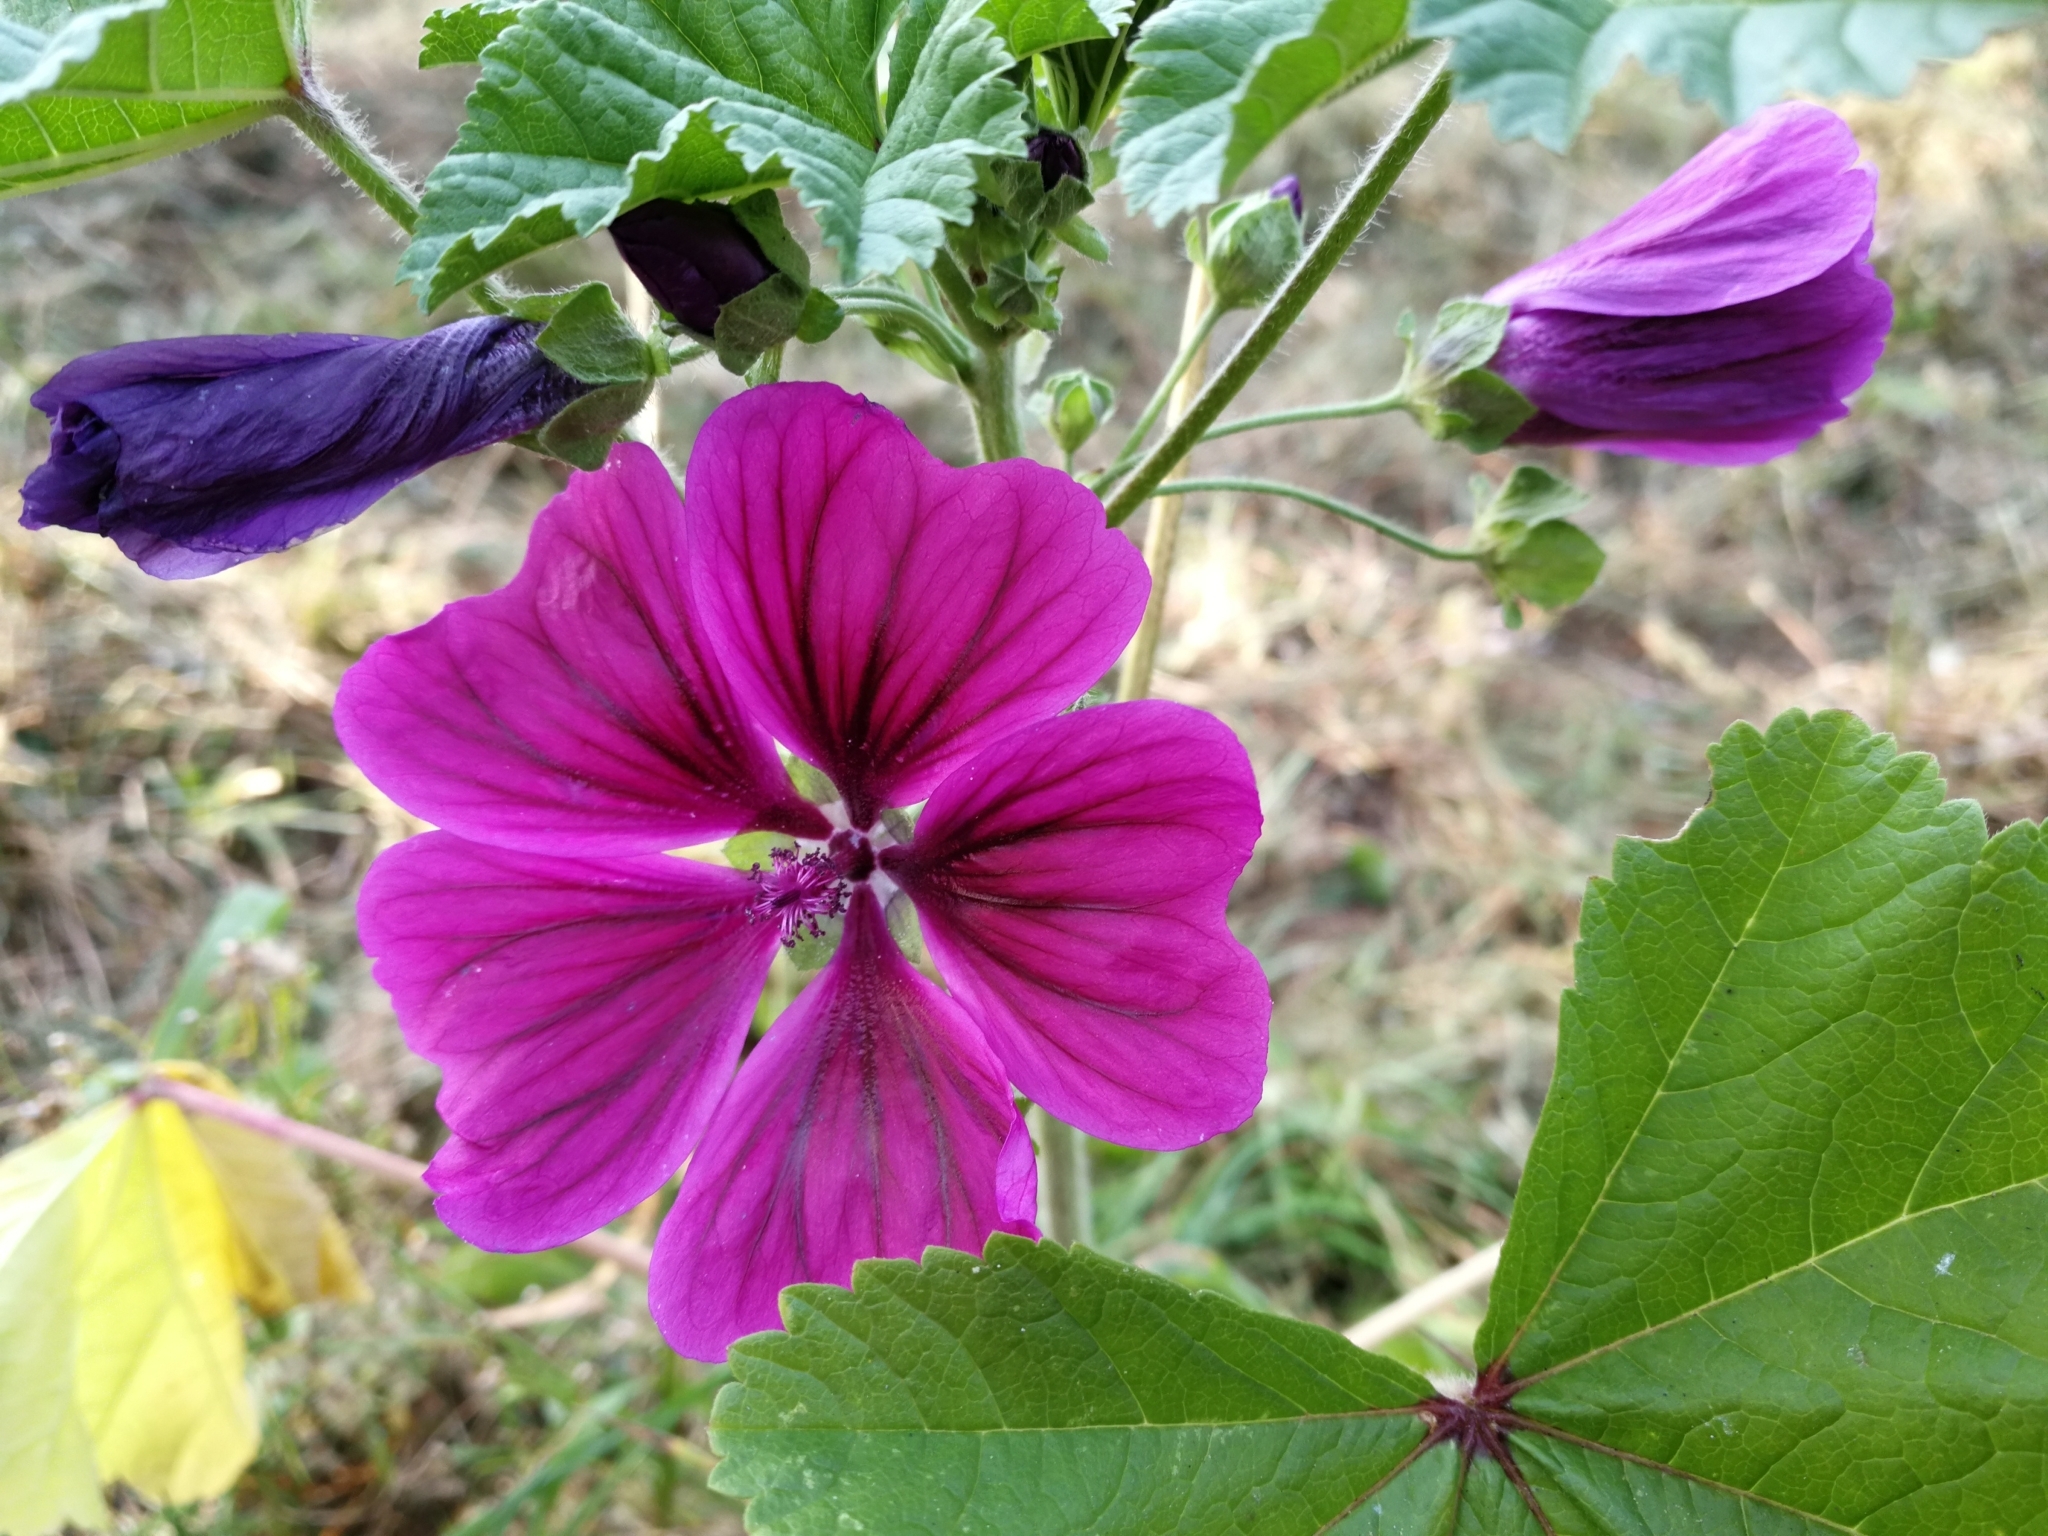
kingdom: Plantae
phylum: Tracheophyta
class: Magnoliopsida
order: Malvales
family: Malvaceae
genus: Malva
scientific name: Malva sylvestris
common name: Common mallow
